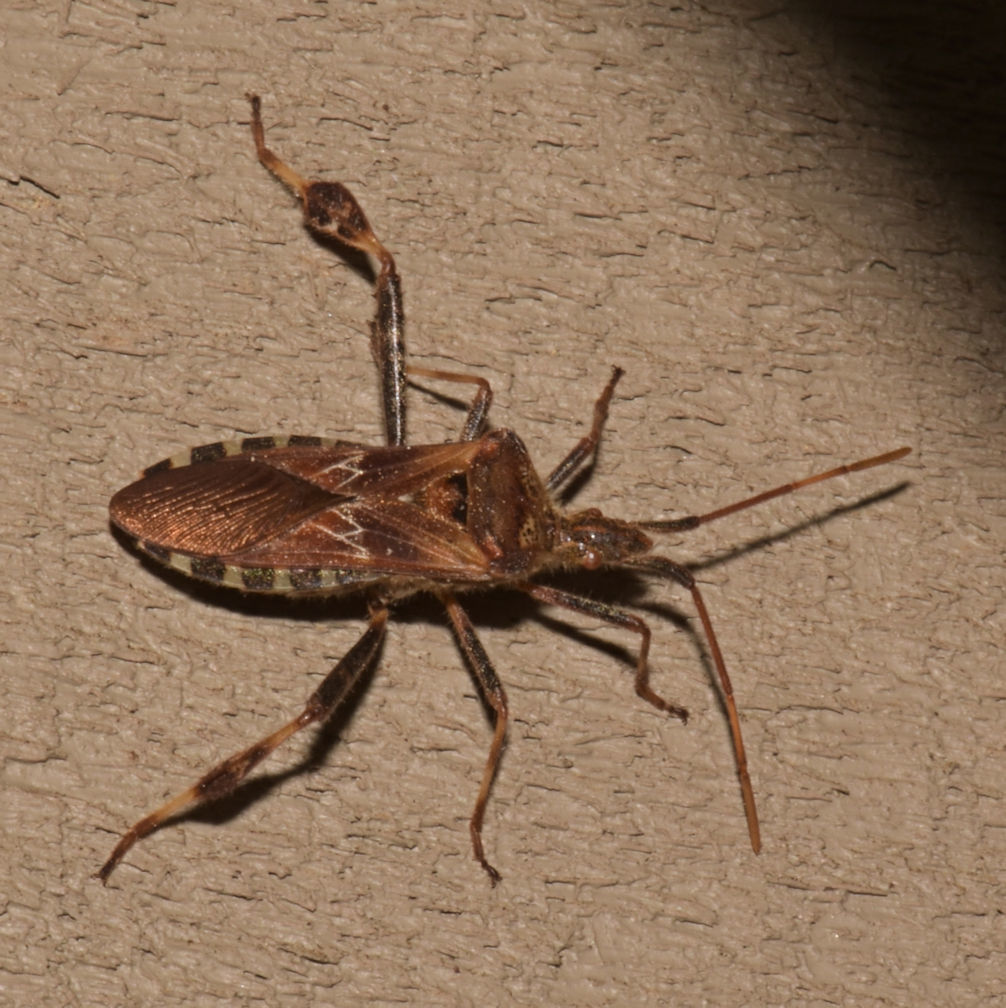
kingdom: Animalia
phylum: Arthropoda
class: Insecta
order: Hemiptera
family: Coreidae
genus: Leptoglossus
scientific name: Leptoglossus occidentalis
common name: Western conifer-seed bug
